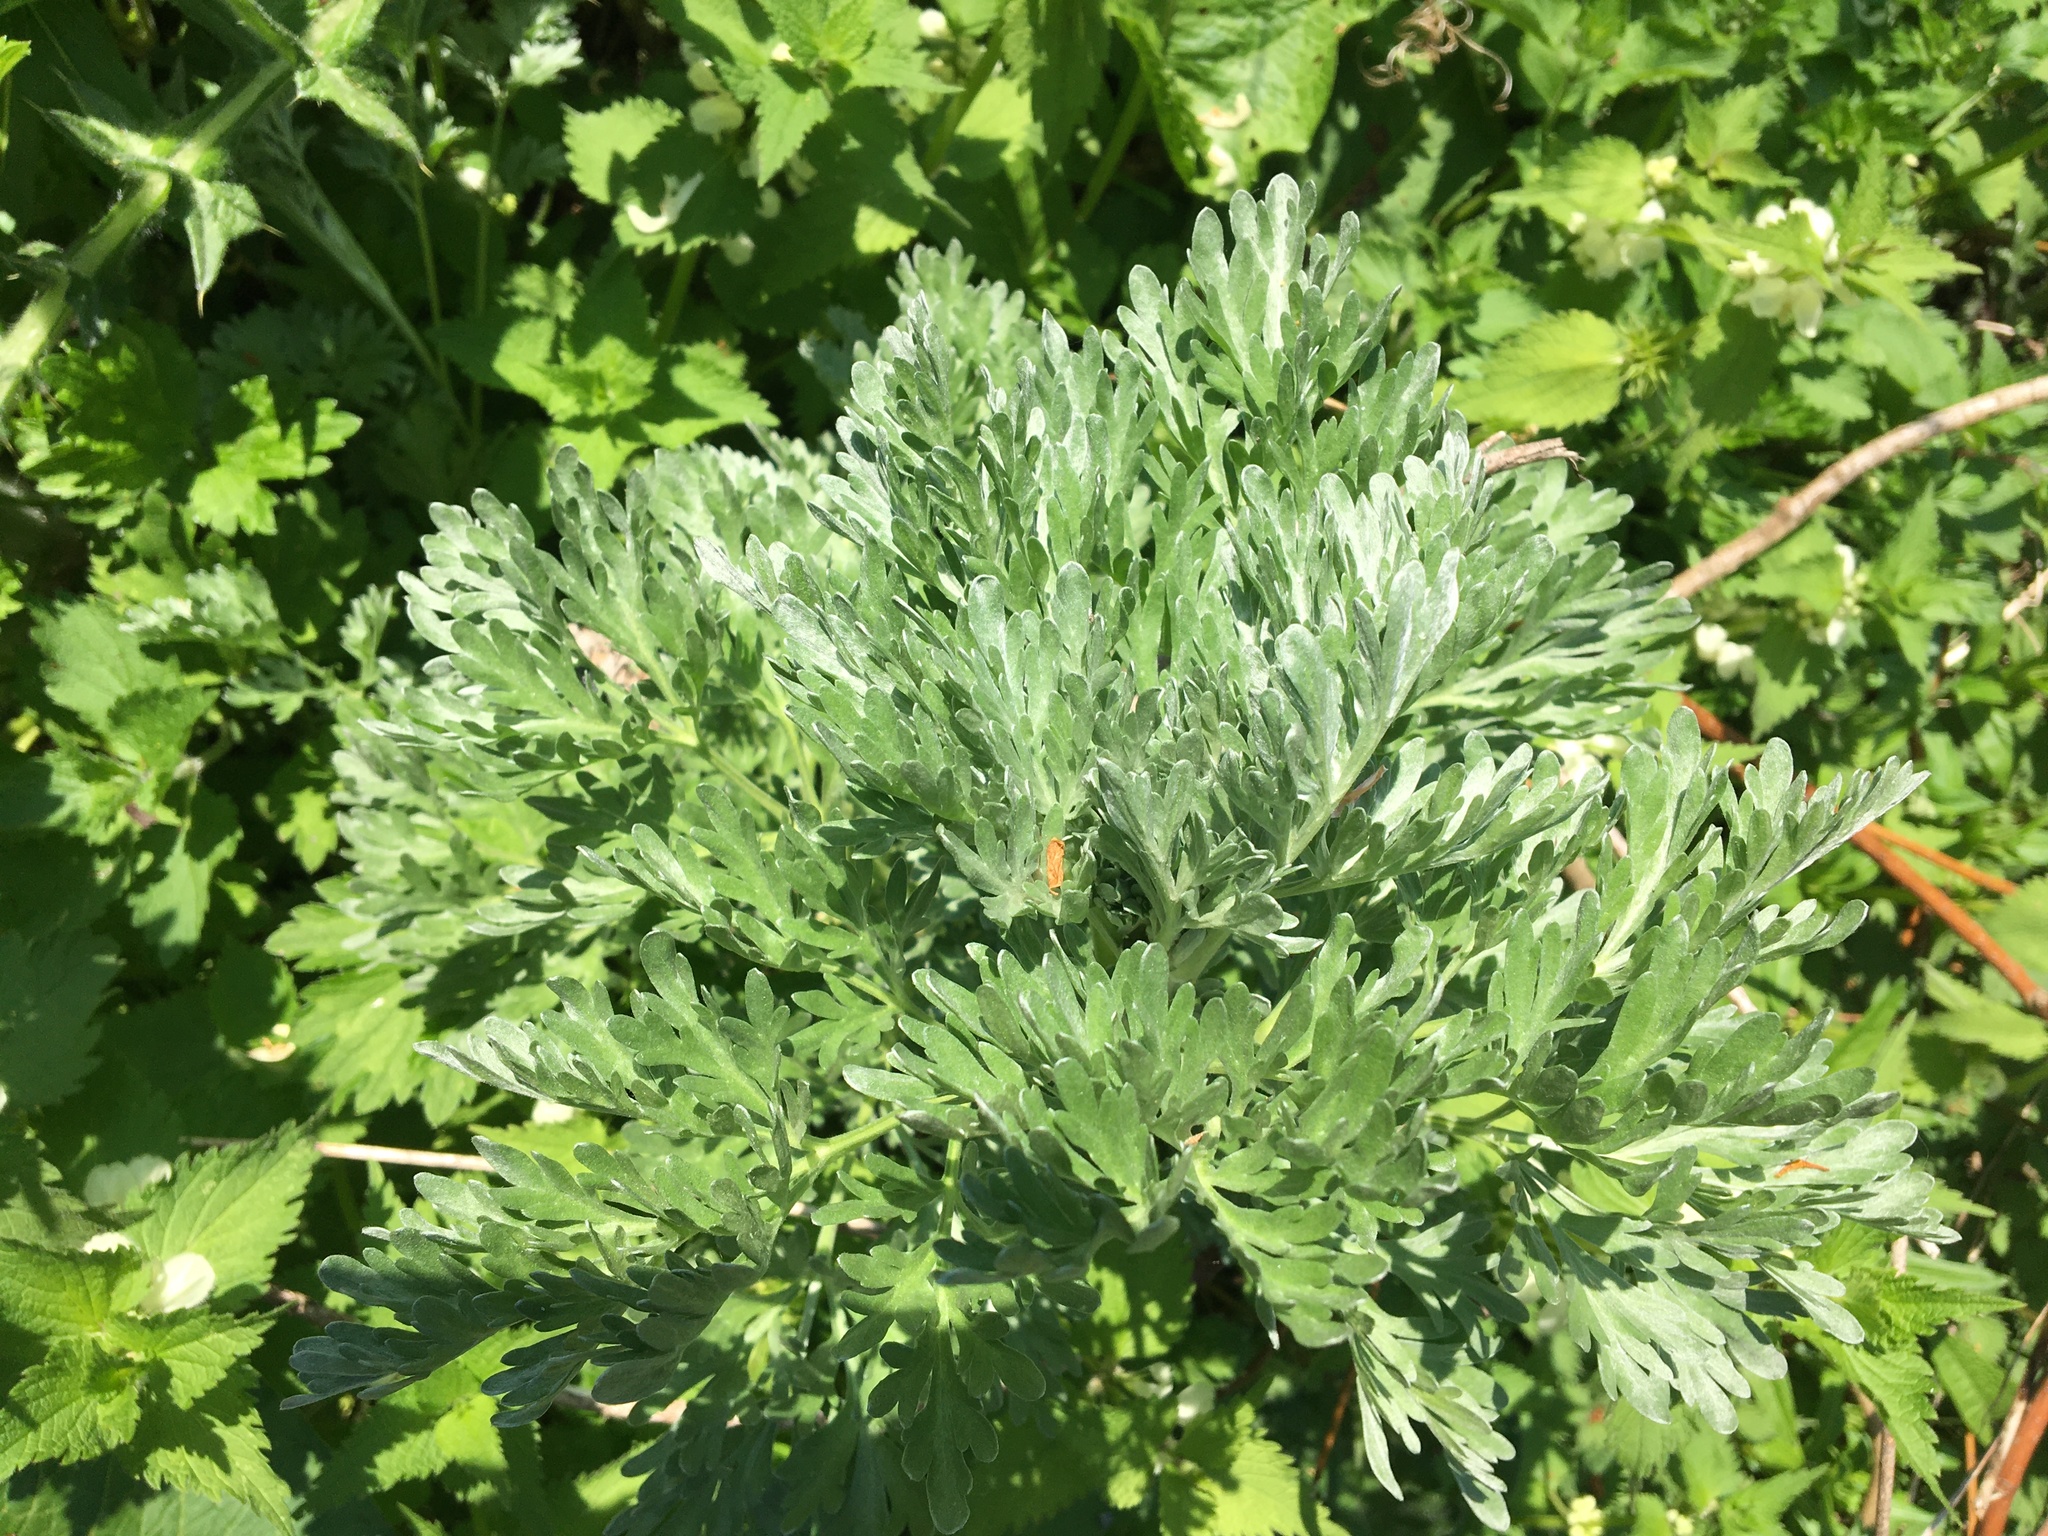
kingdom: Plantae
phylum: Tracheophyta
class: Magnoliopsida
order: Asterales
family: Asteraceae
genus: Artemisia
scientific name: Artemisia vulgaris
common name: Mugwort
